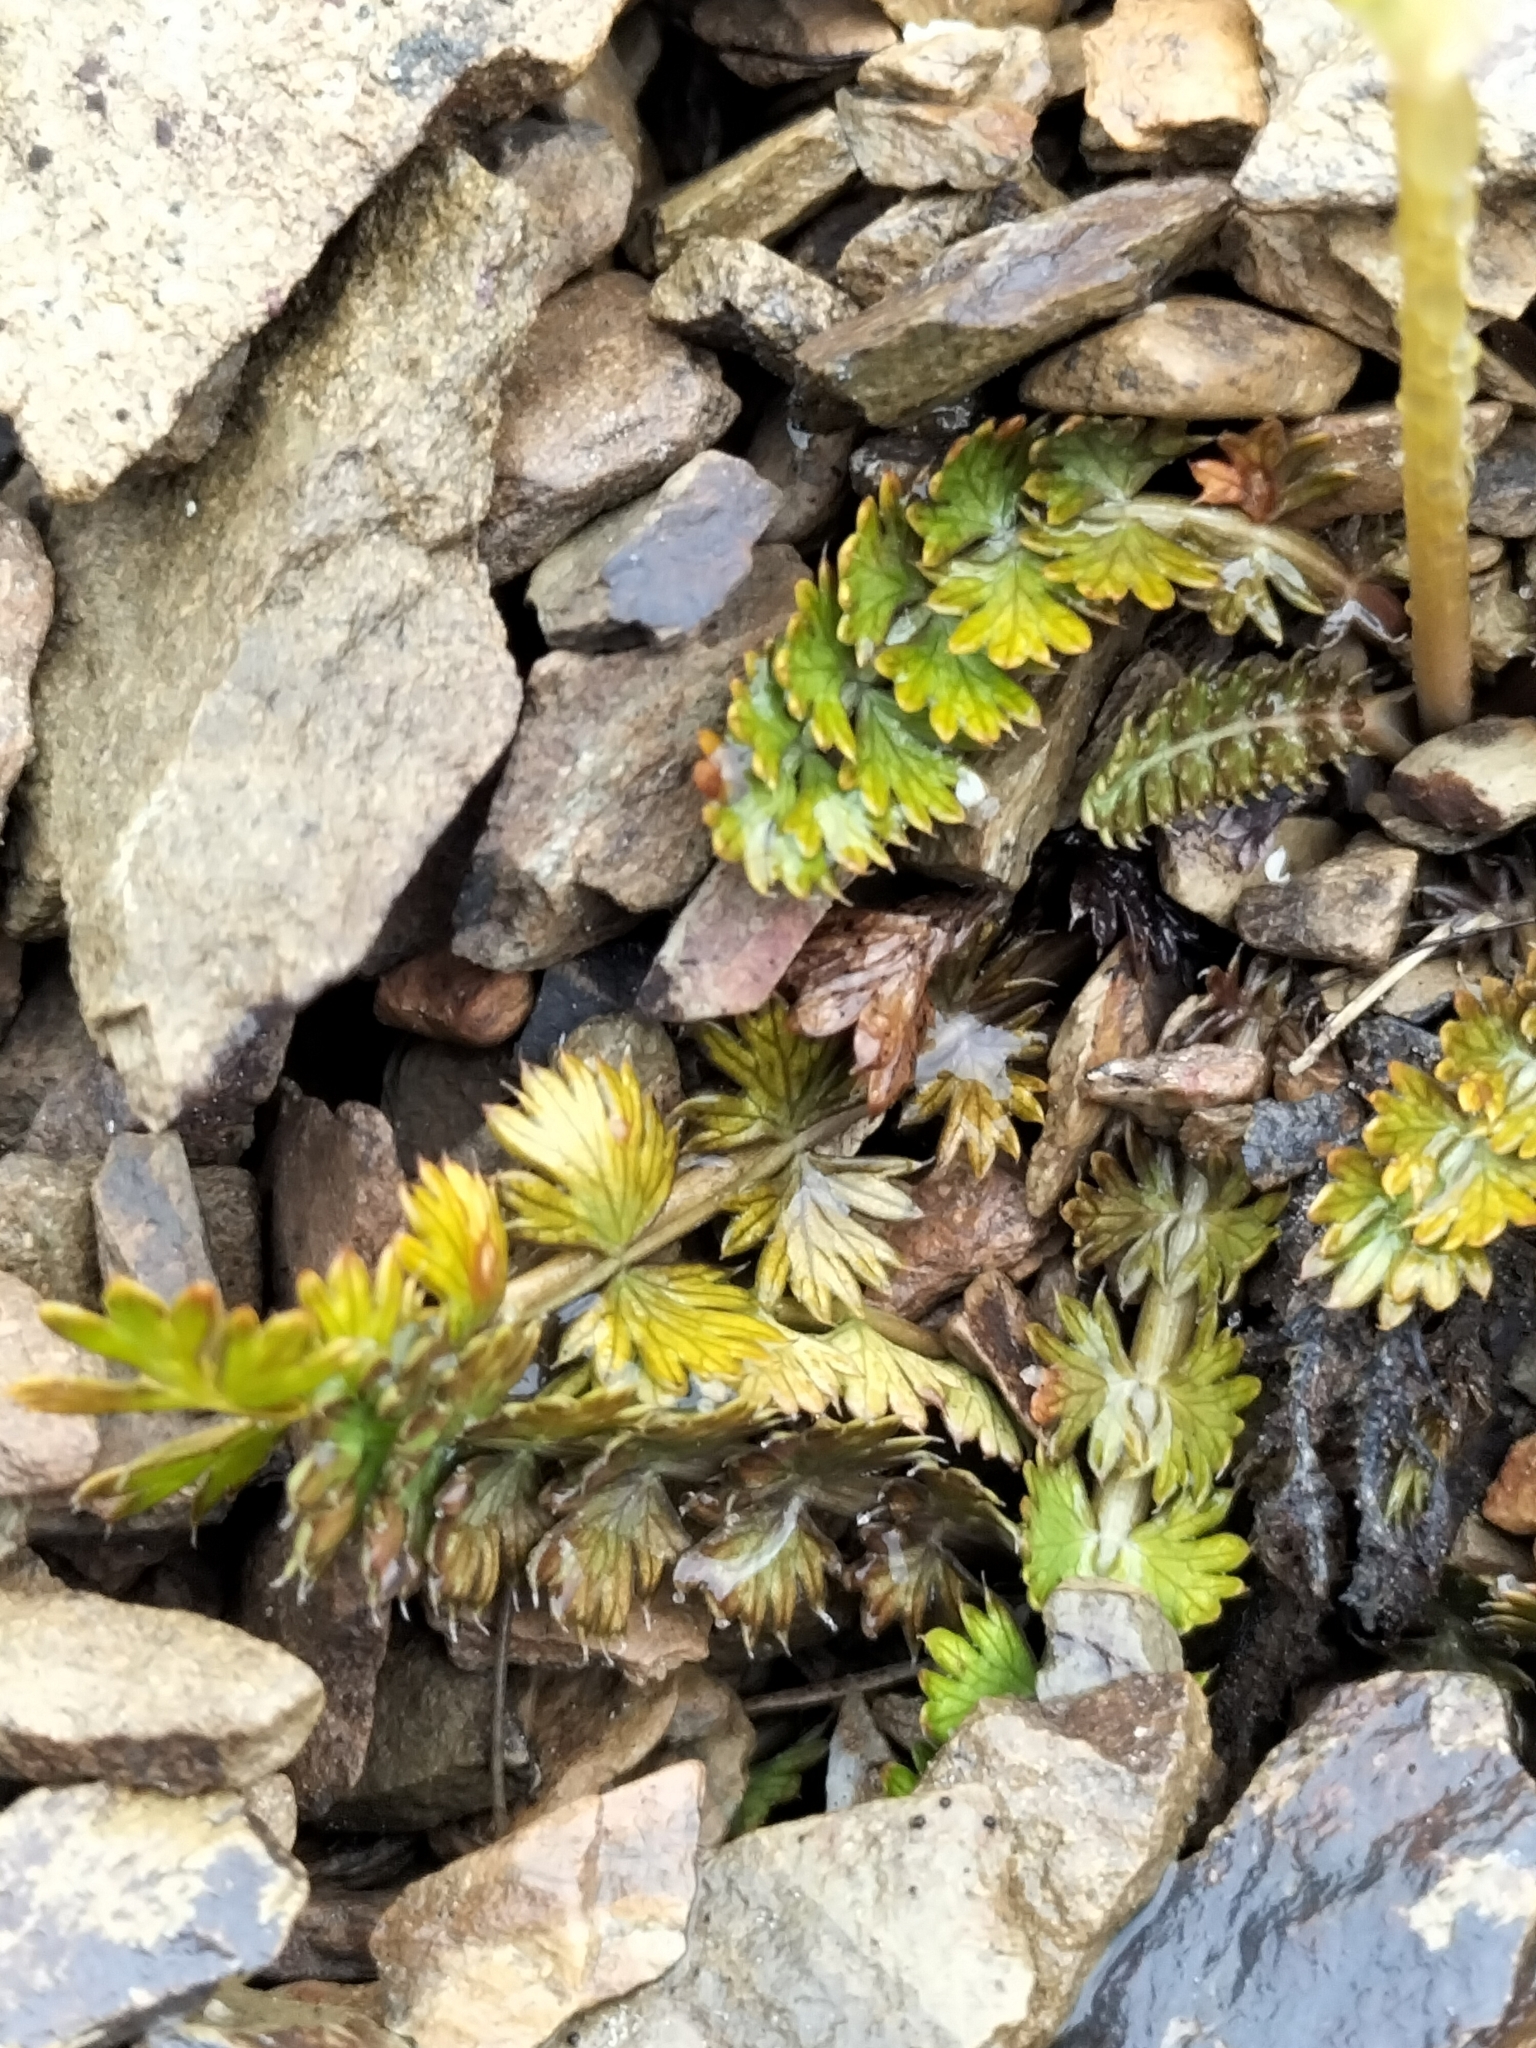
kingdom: Plantae
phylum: Tracheophyta
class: Magnoliopsida
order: Apiales
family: Apiaceae
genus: Anisotome
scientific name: Anisotome aromatica
